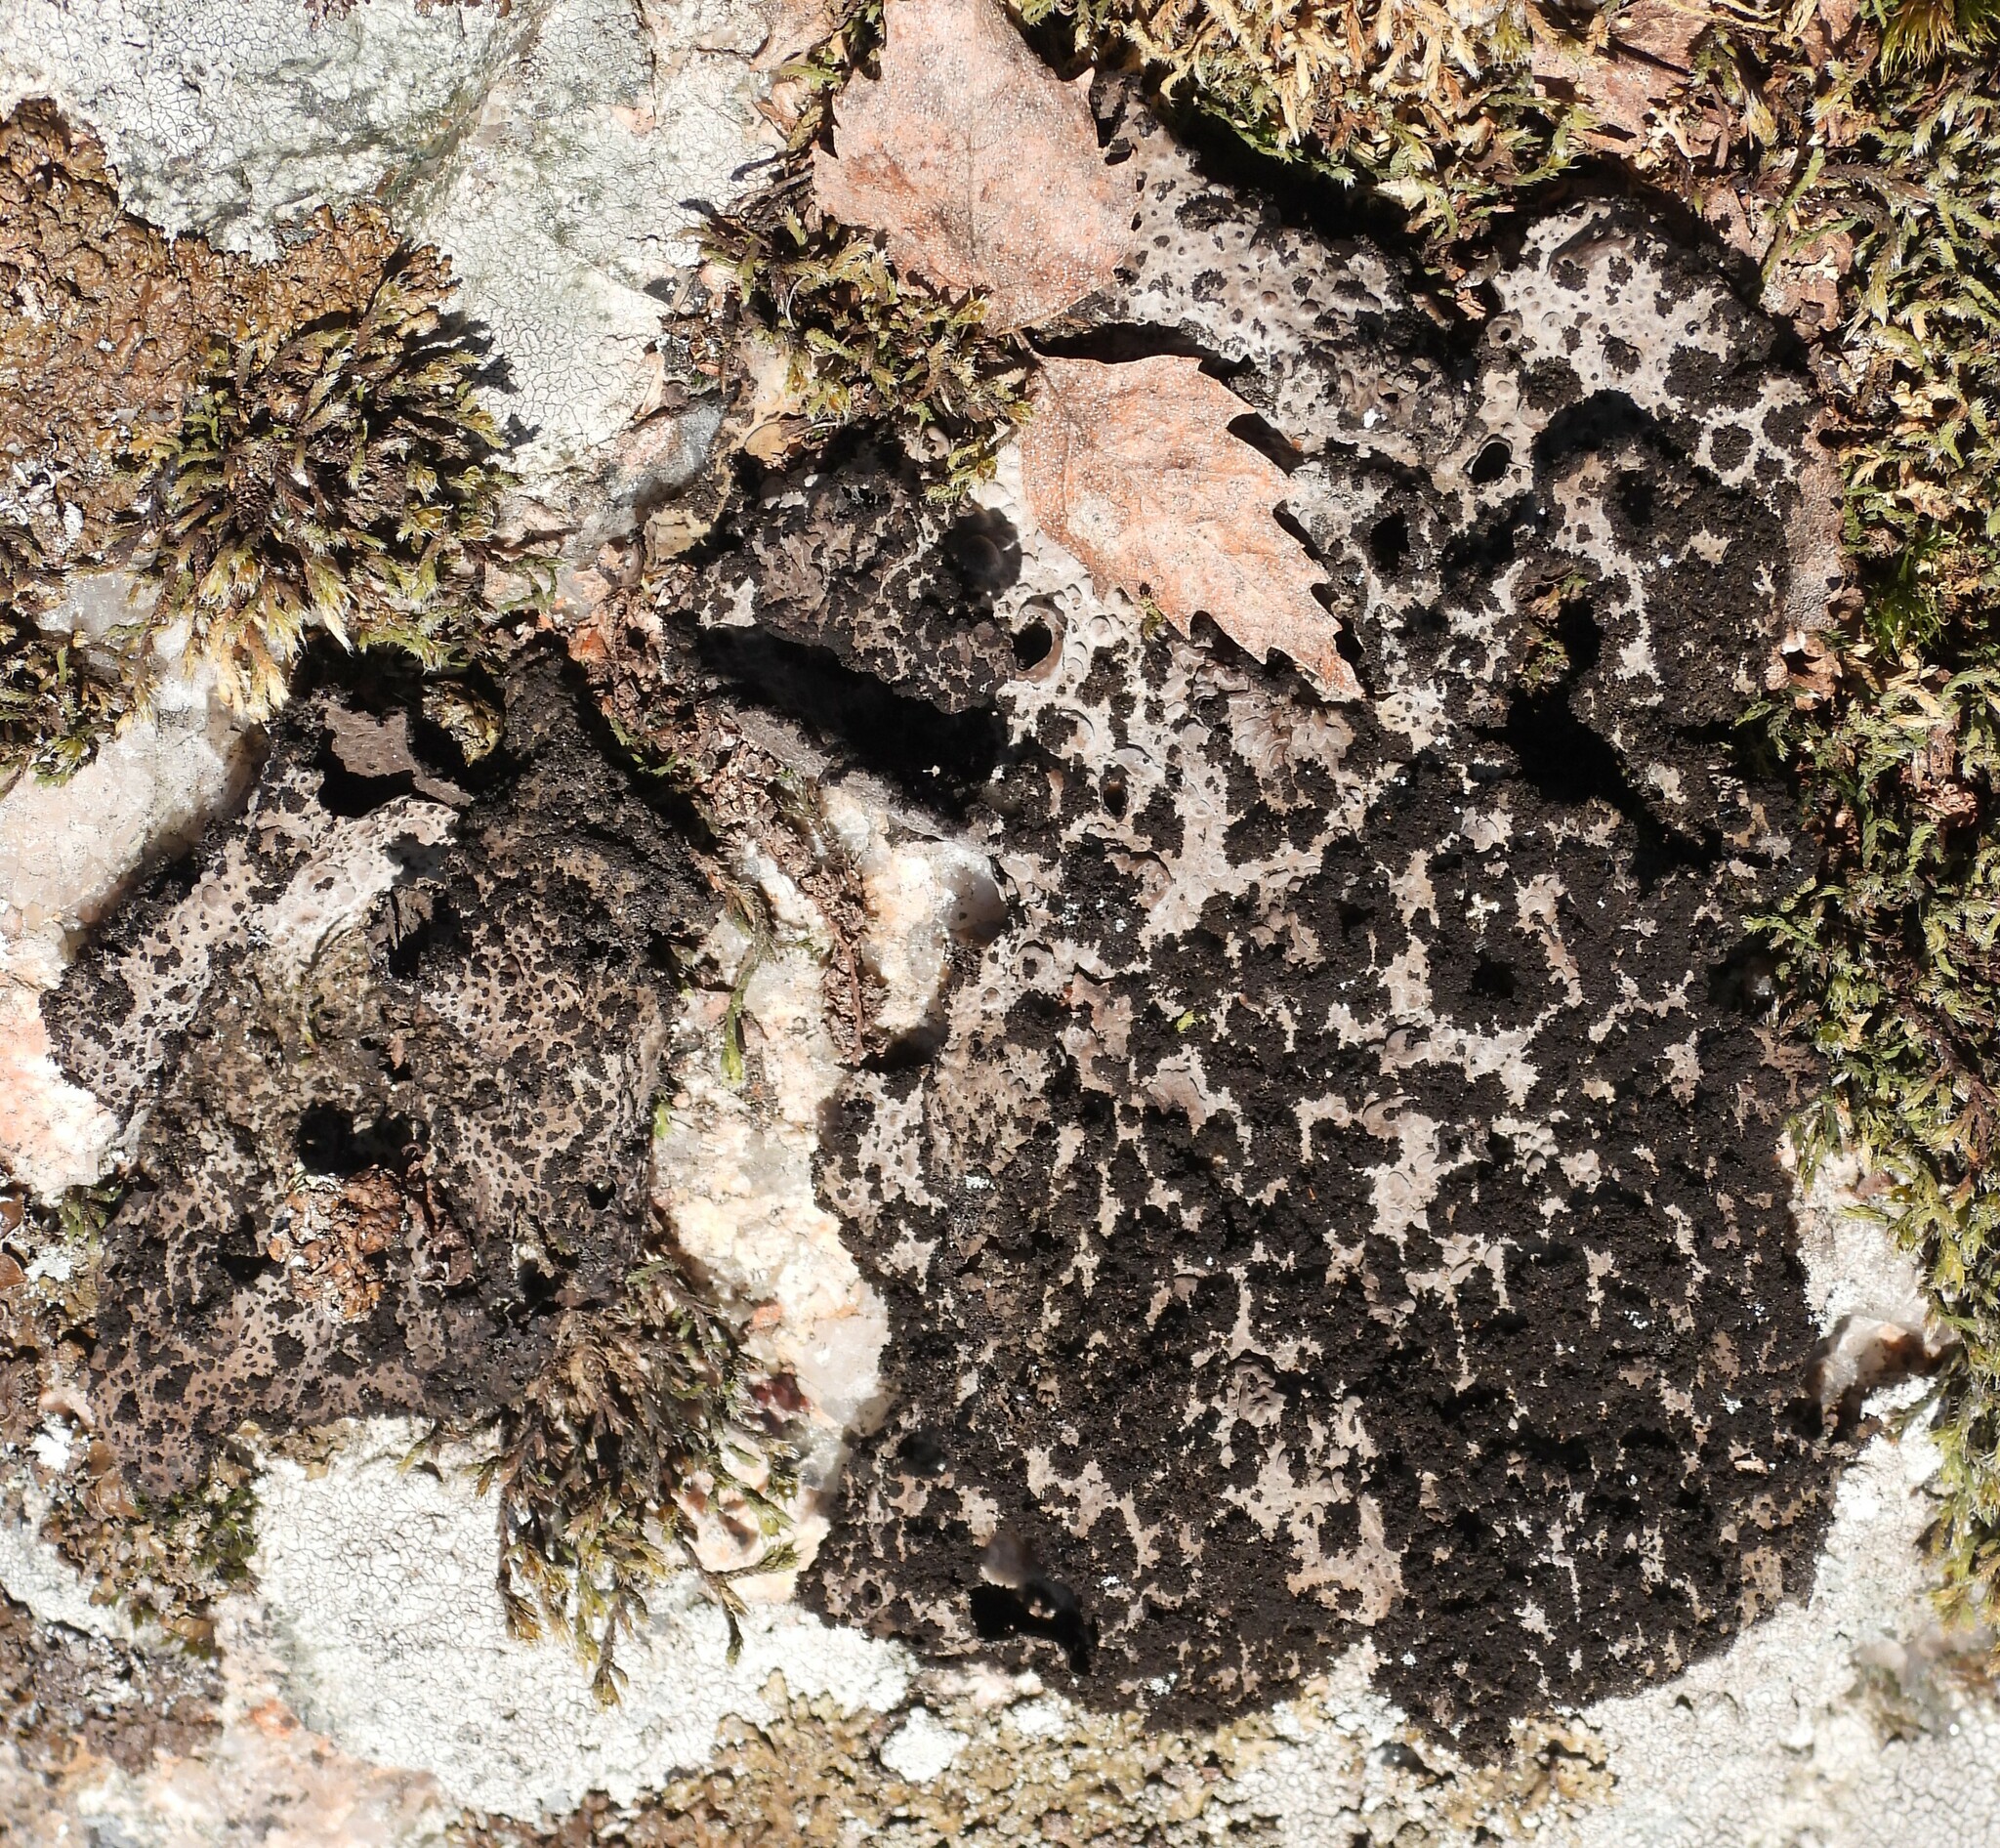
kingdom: Fungi
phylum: Ascomycota
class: Lecanoromycetes
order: Umbilicariales
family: Umbilicariaceae
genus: Lasallia
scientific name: Lasallia pustulata
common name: Blistered toadskin lichen
